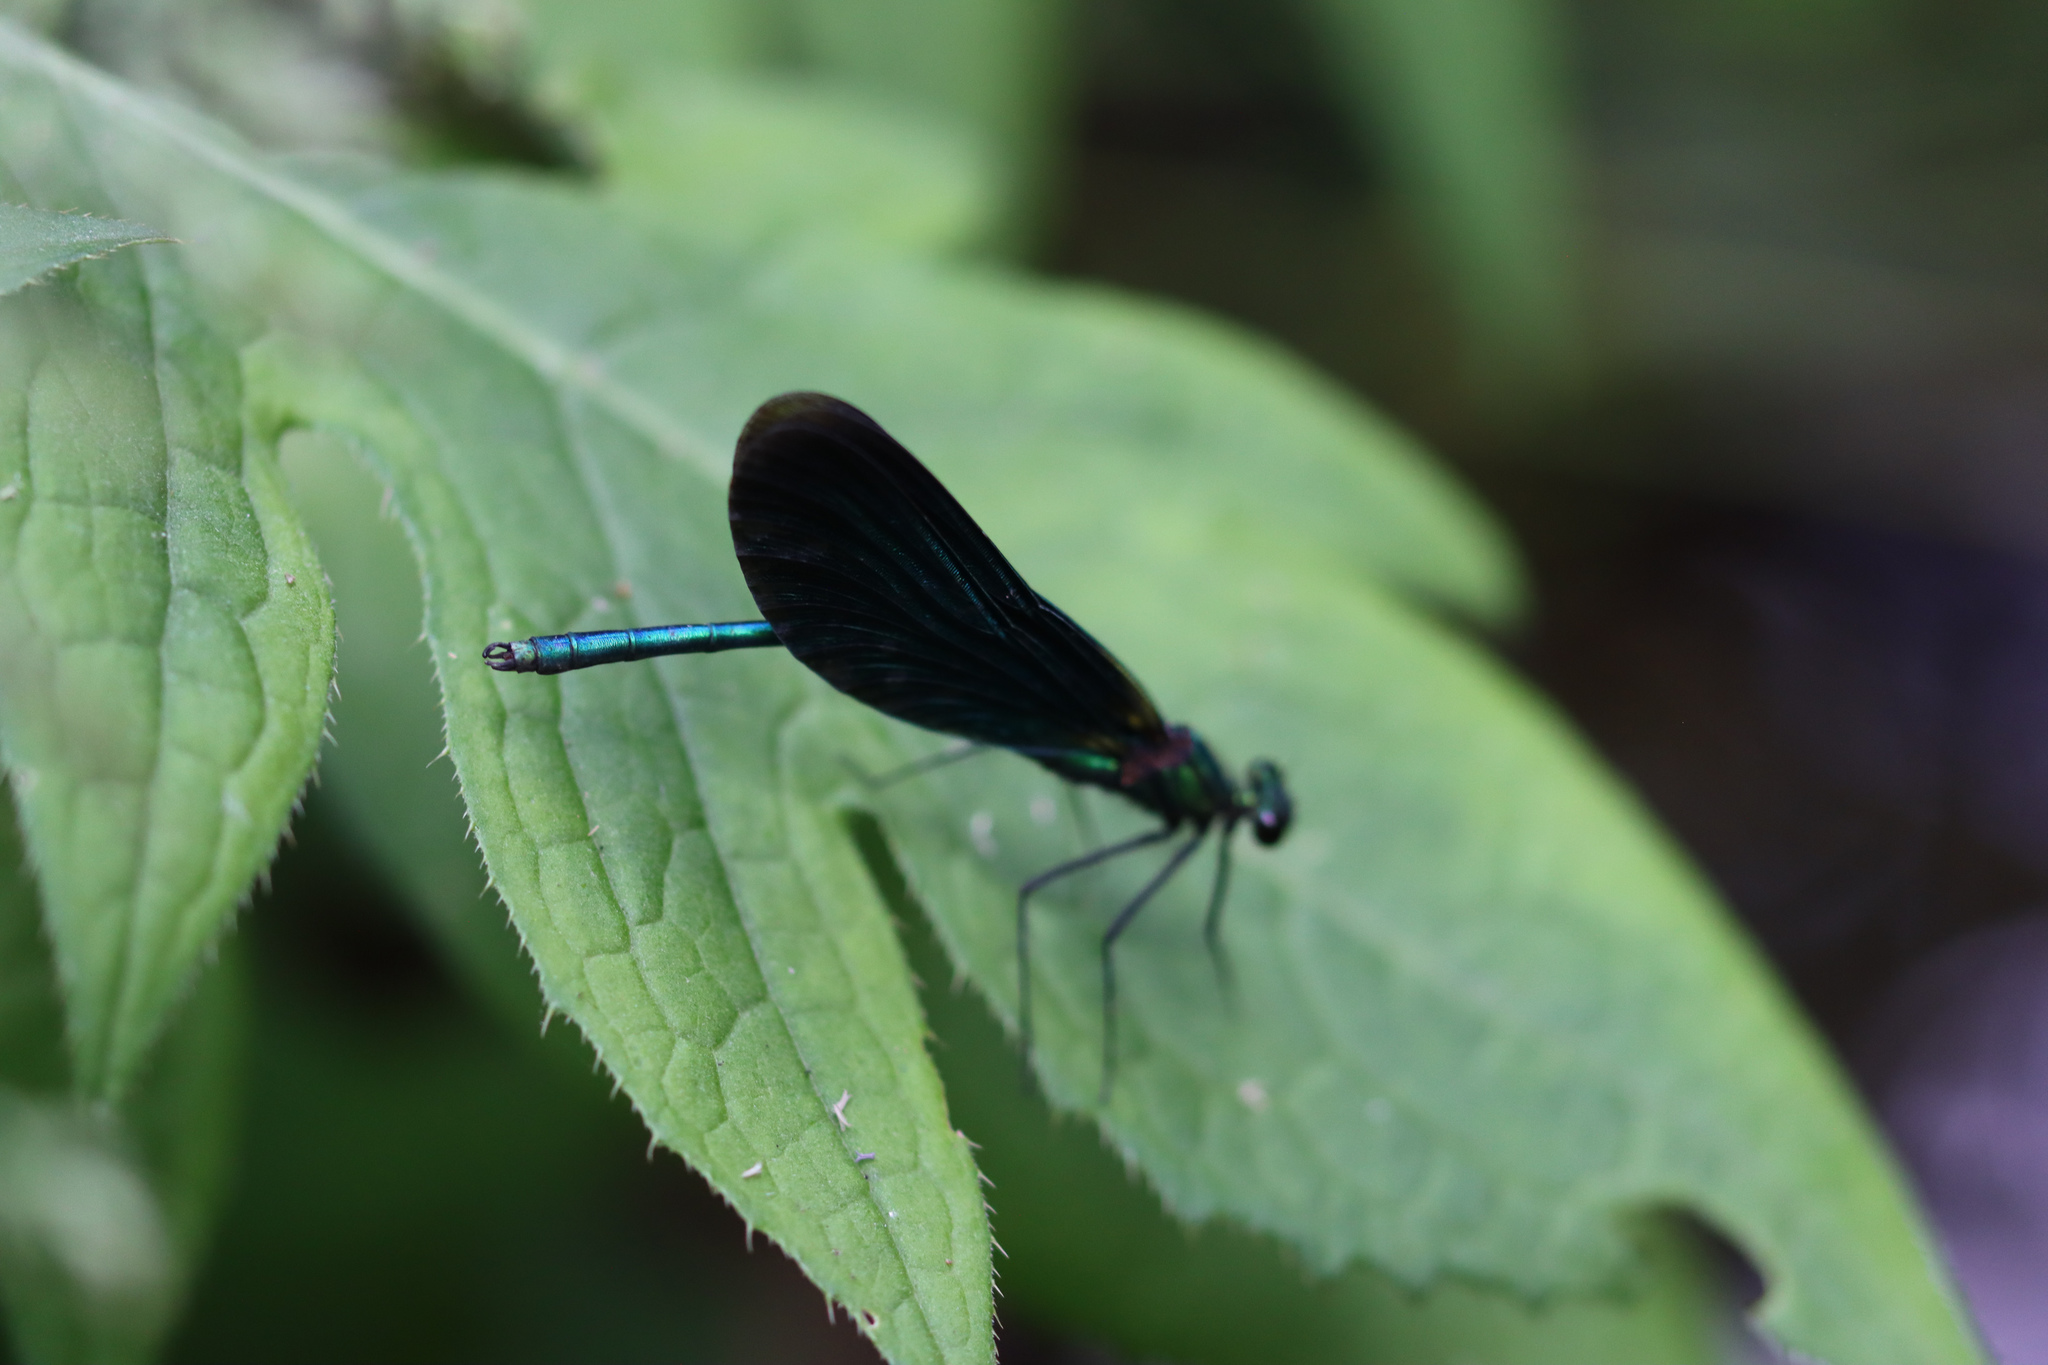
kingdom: Animalia
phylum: Arthropoda
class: Insecta
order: Odonata
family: Calopterygidae
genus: Calopteryx
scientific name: Calopteryx virgo
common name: Beautiful demoiselle
